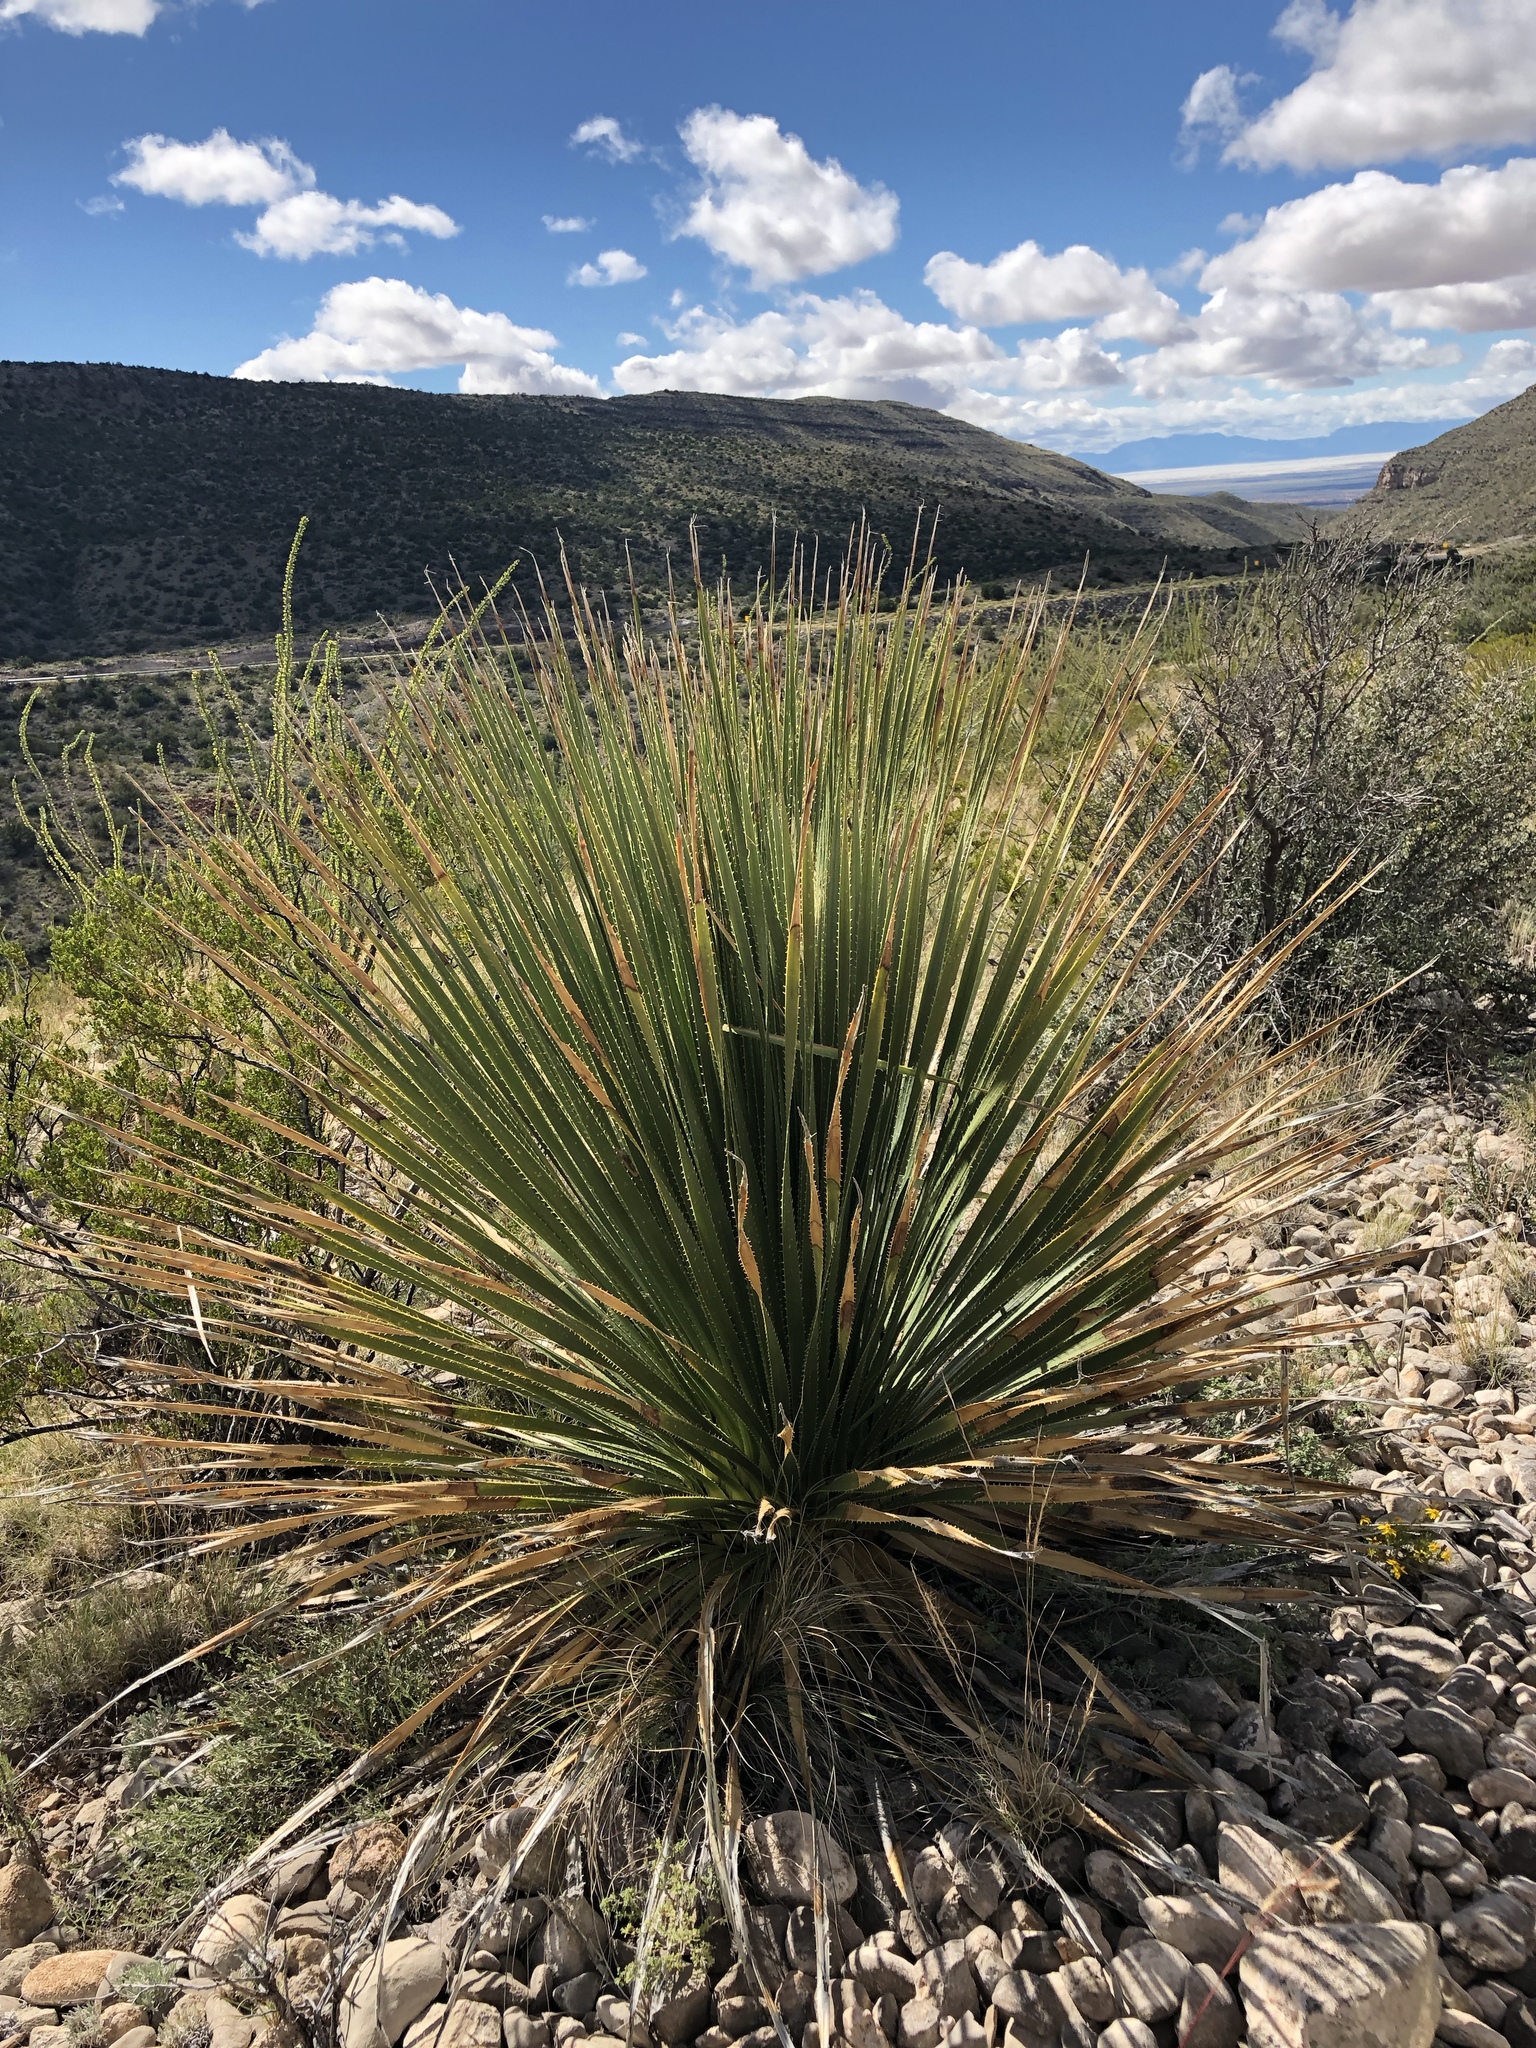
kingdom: Plantae
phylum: Tracheophyta
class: Liliopsida
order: Asparagales
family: Asparagaceae
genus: Dasylirion
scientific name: Dasylirion wheeleri
